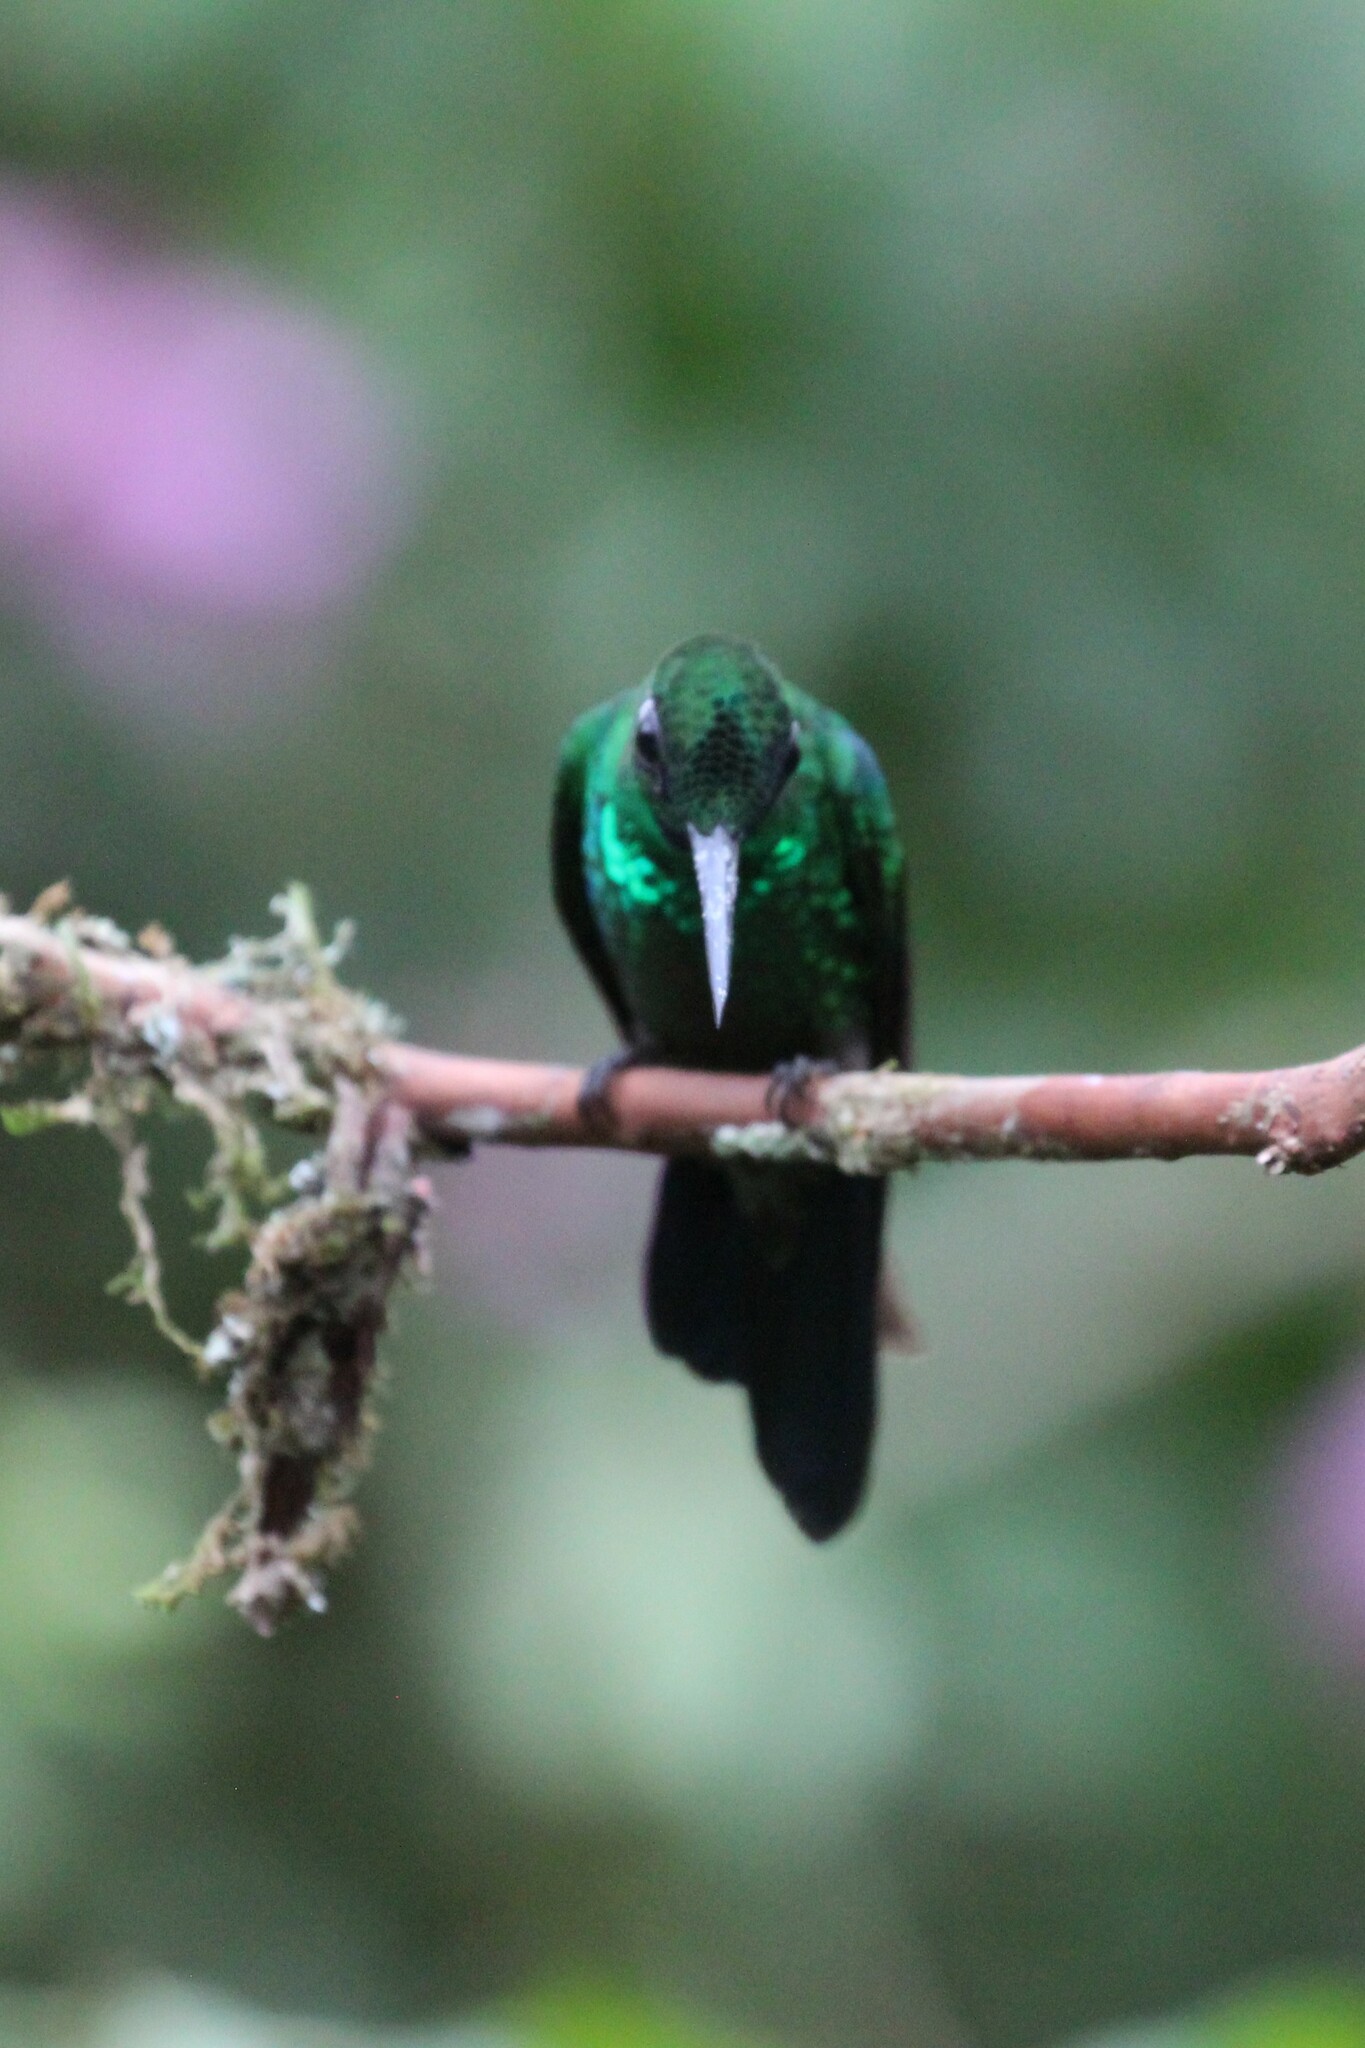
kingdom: Animalia
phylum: Chordata
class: Aves
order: Apodiformes
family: Trochilidae
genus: Heliodoxa
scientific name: Heliodoxa jacula
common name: Green-crowned brilliant
